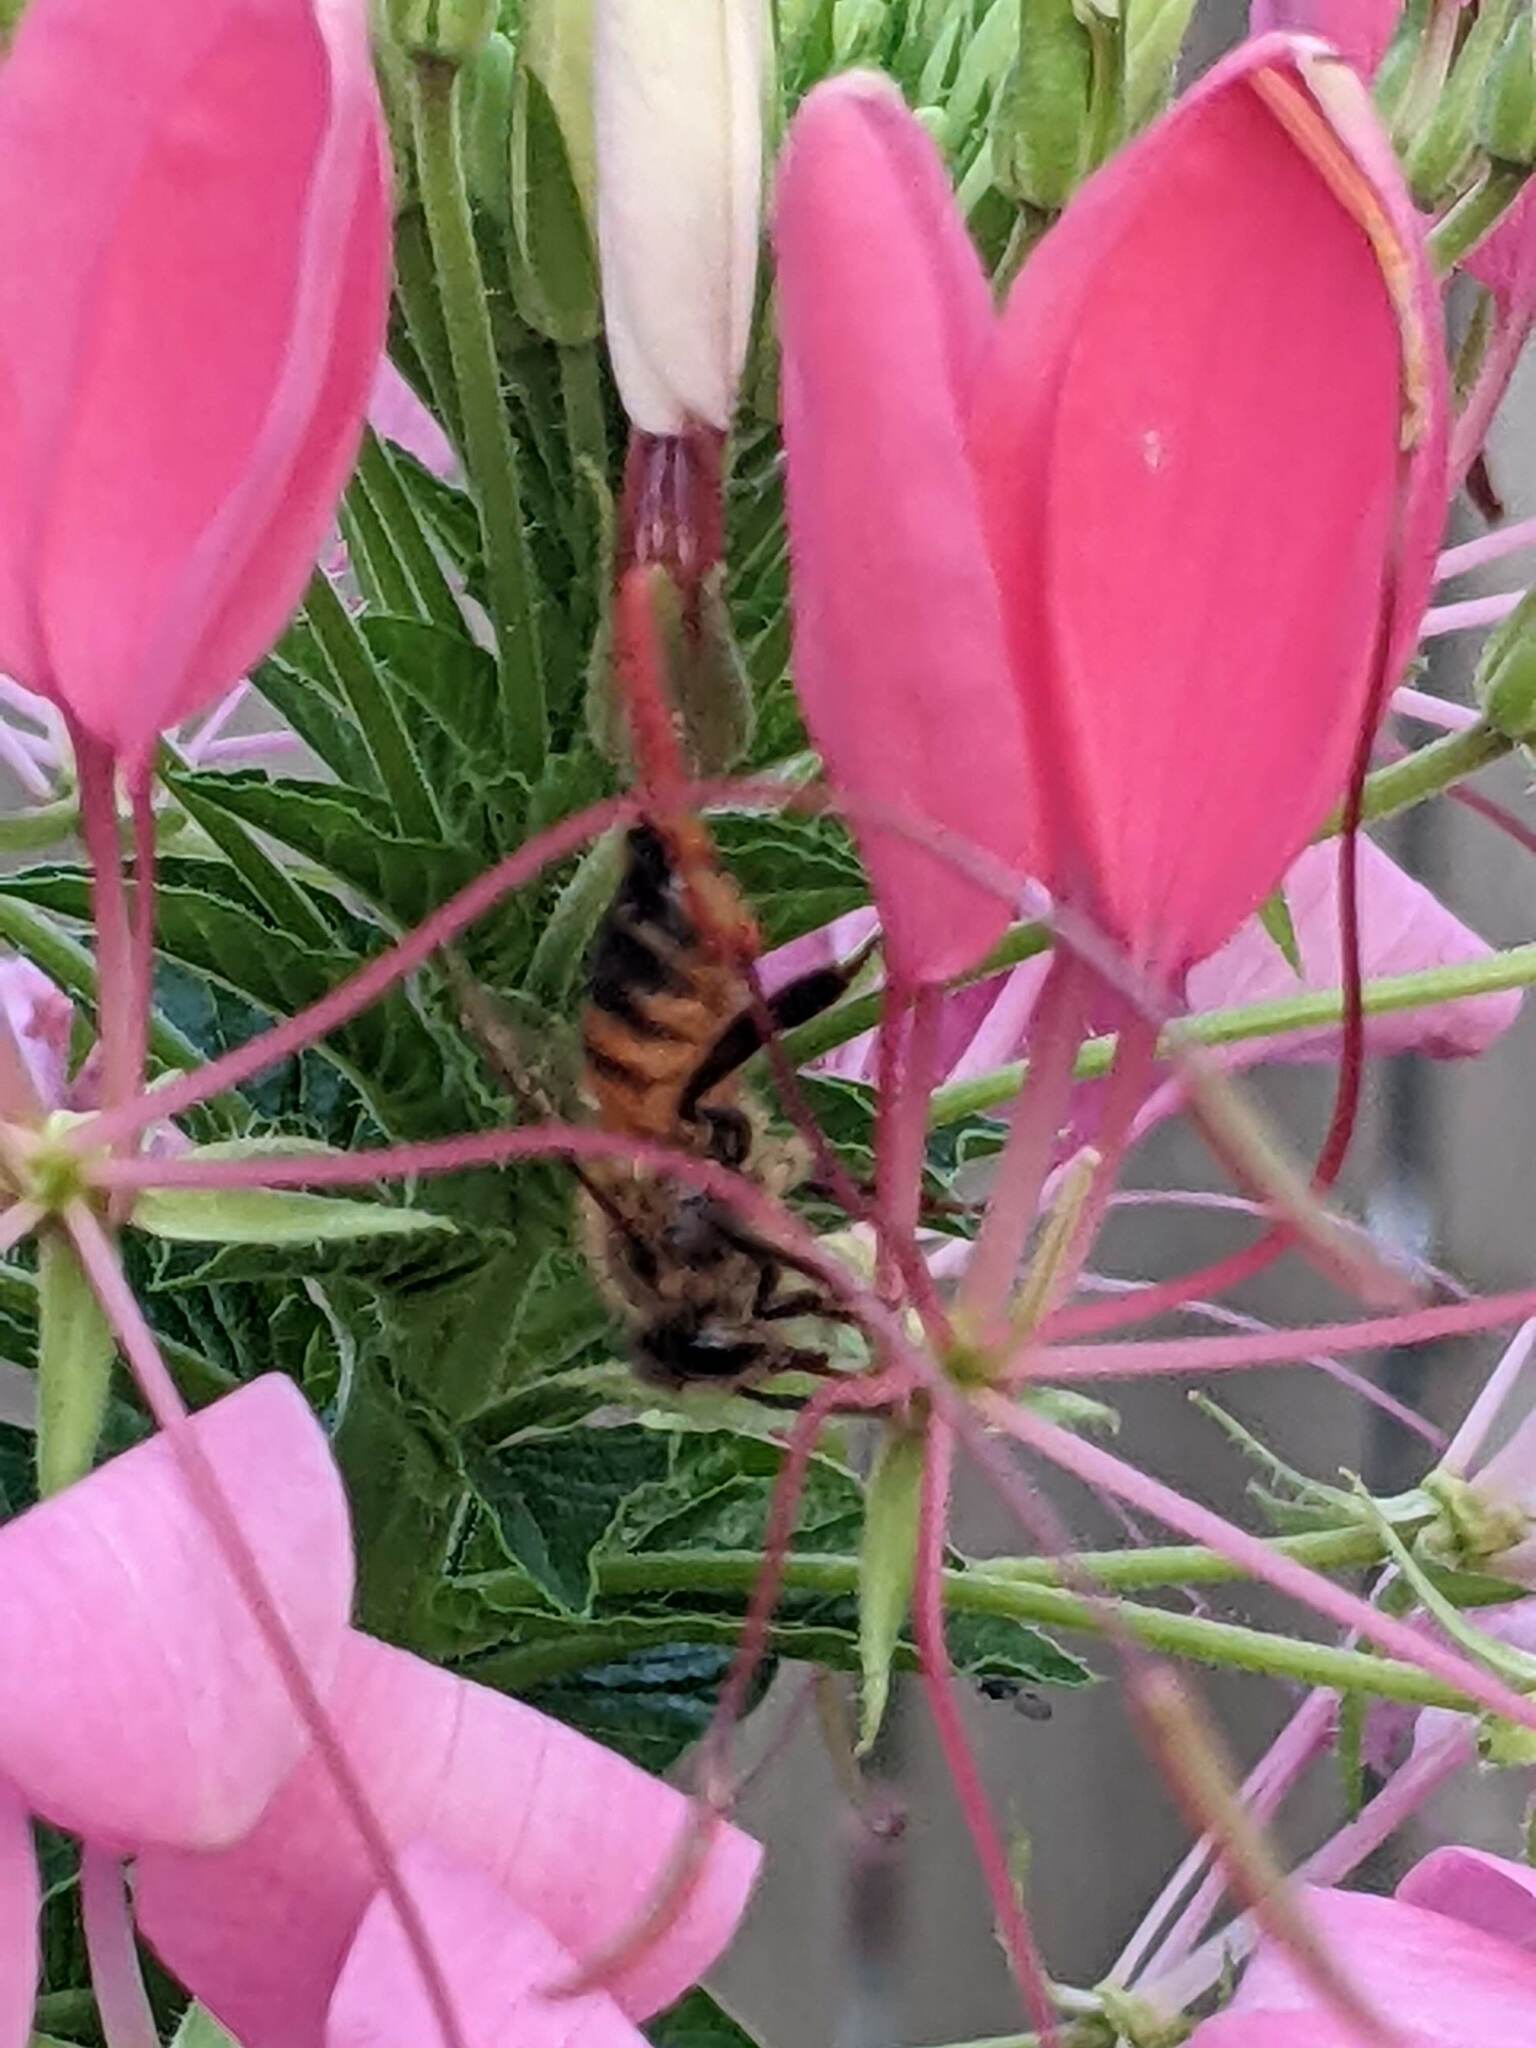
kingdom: Animalia
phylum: Arthropoda
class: Insecta
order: Hymenoptera
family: Apidae
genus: Apis
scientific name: Apis mellifera
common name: Honey bee
